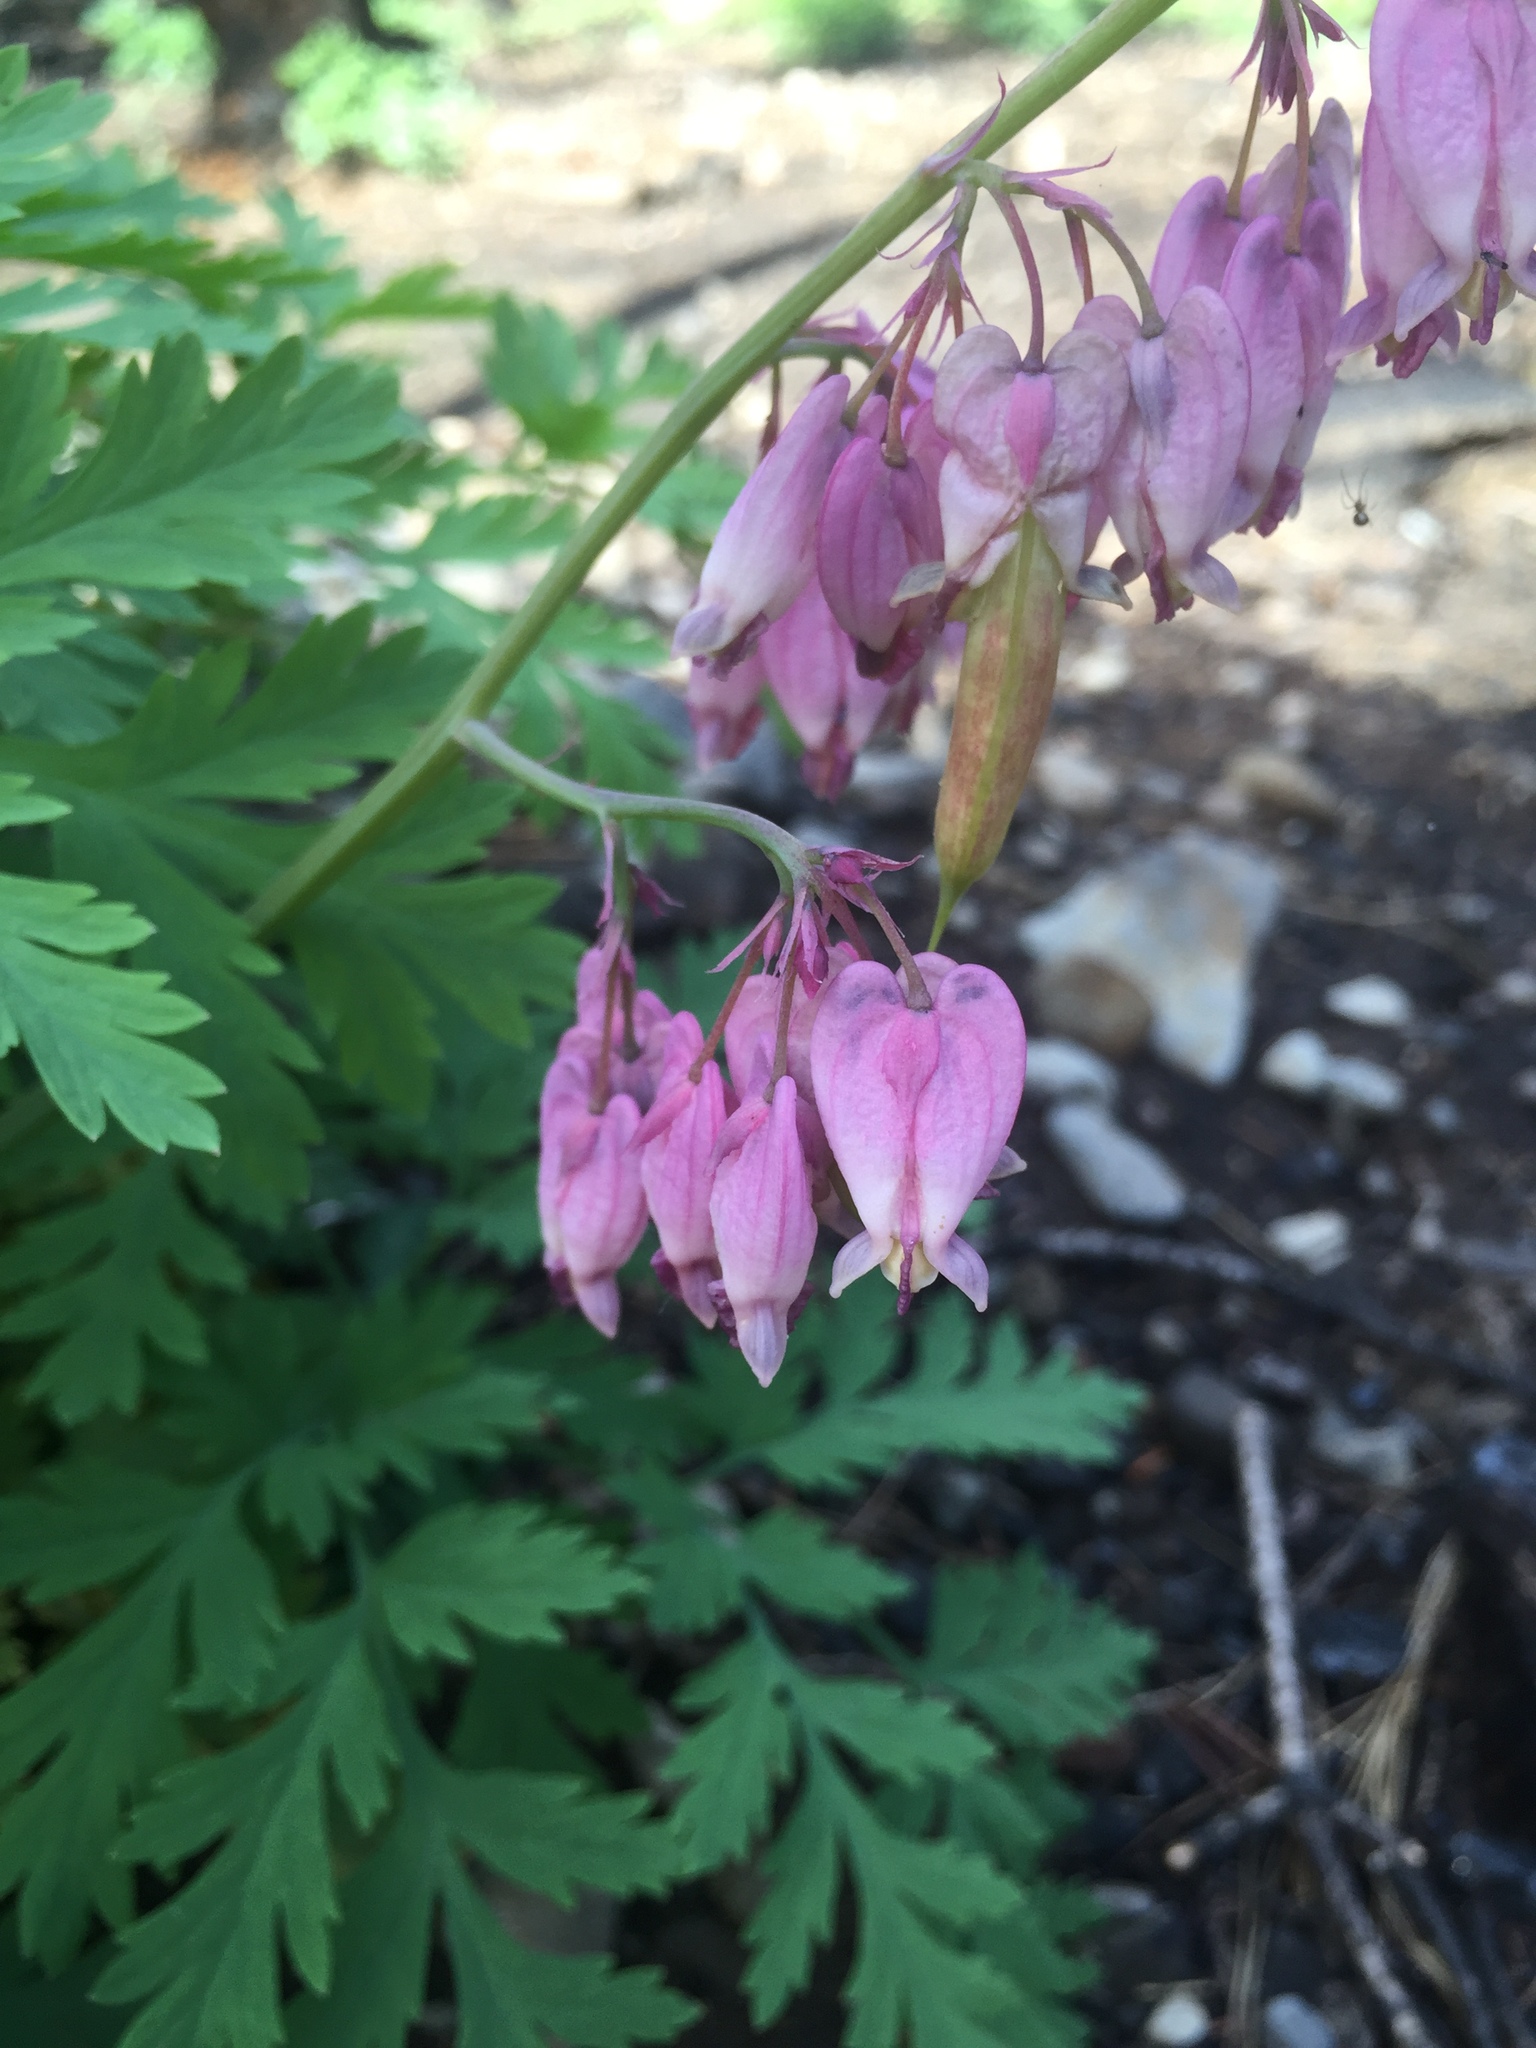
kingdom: Plantae
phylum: Tracheophyta
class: Magnoliopsida
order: Ranunculales
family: Papaveraceae
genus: Dicentra
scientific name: Dicentra formosa
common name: Bleeding-heart
